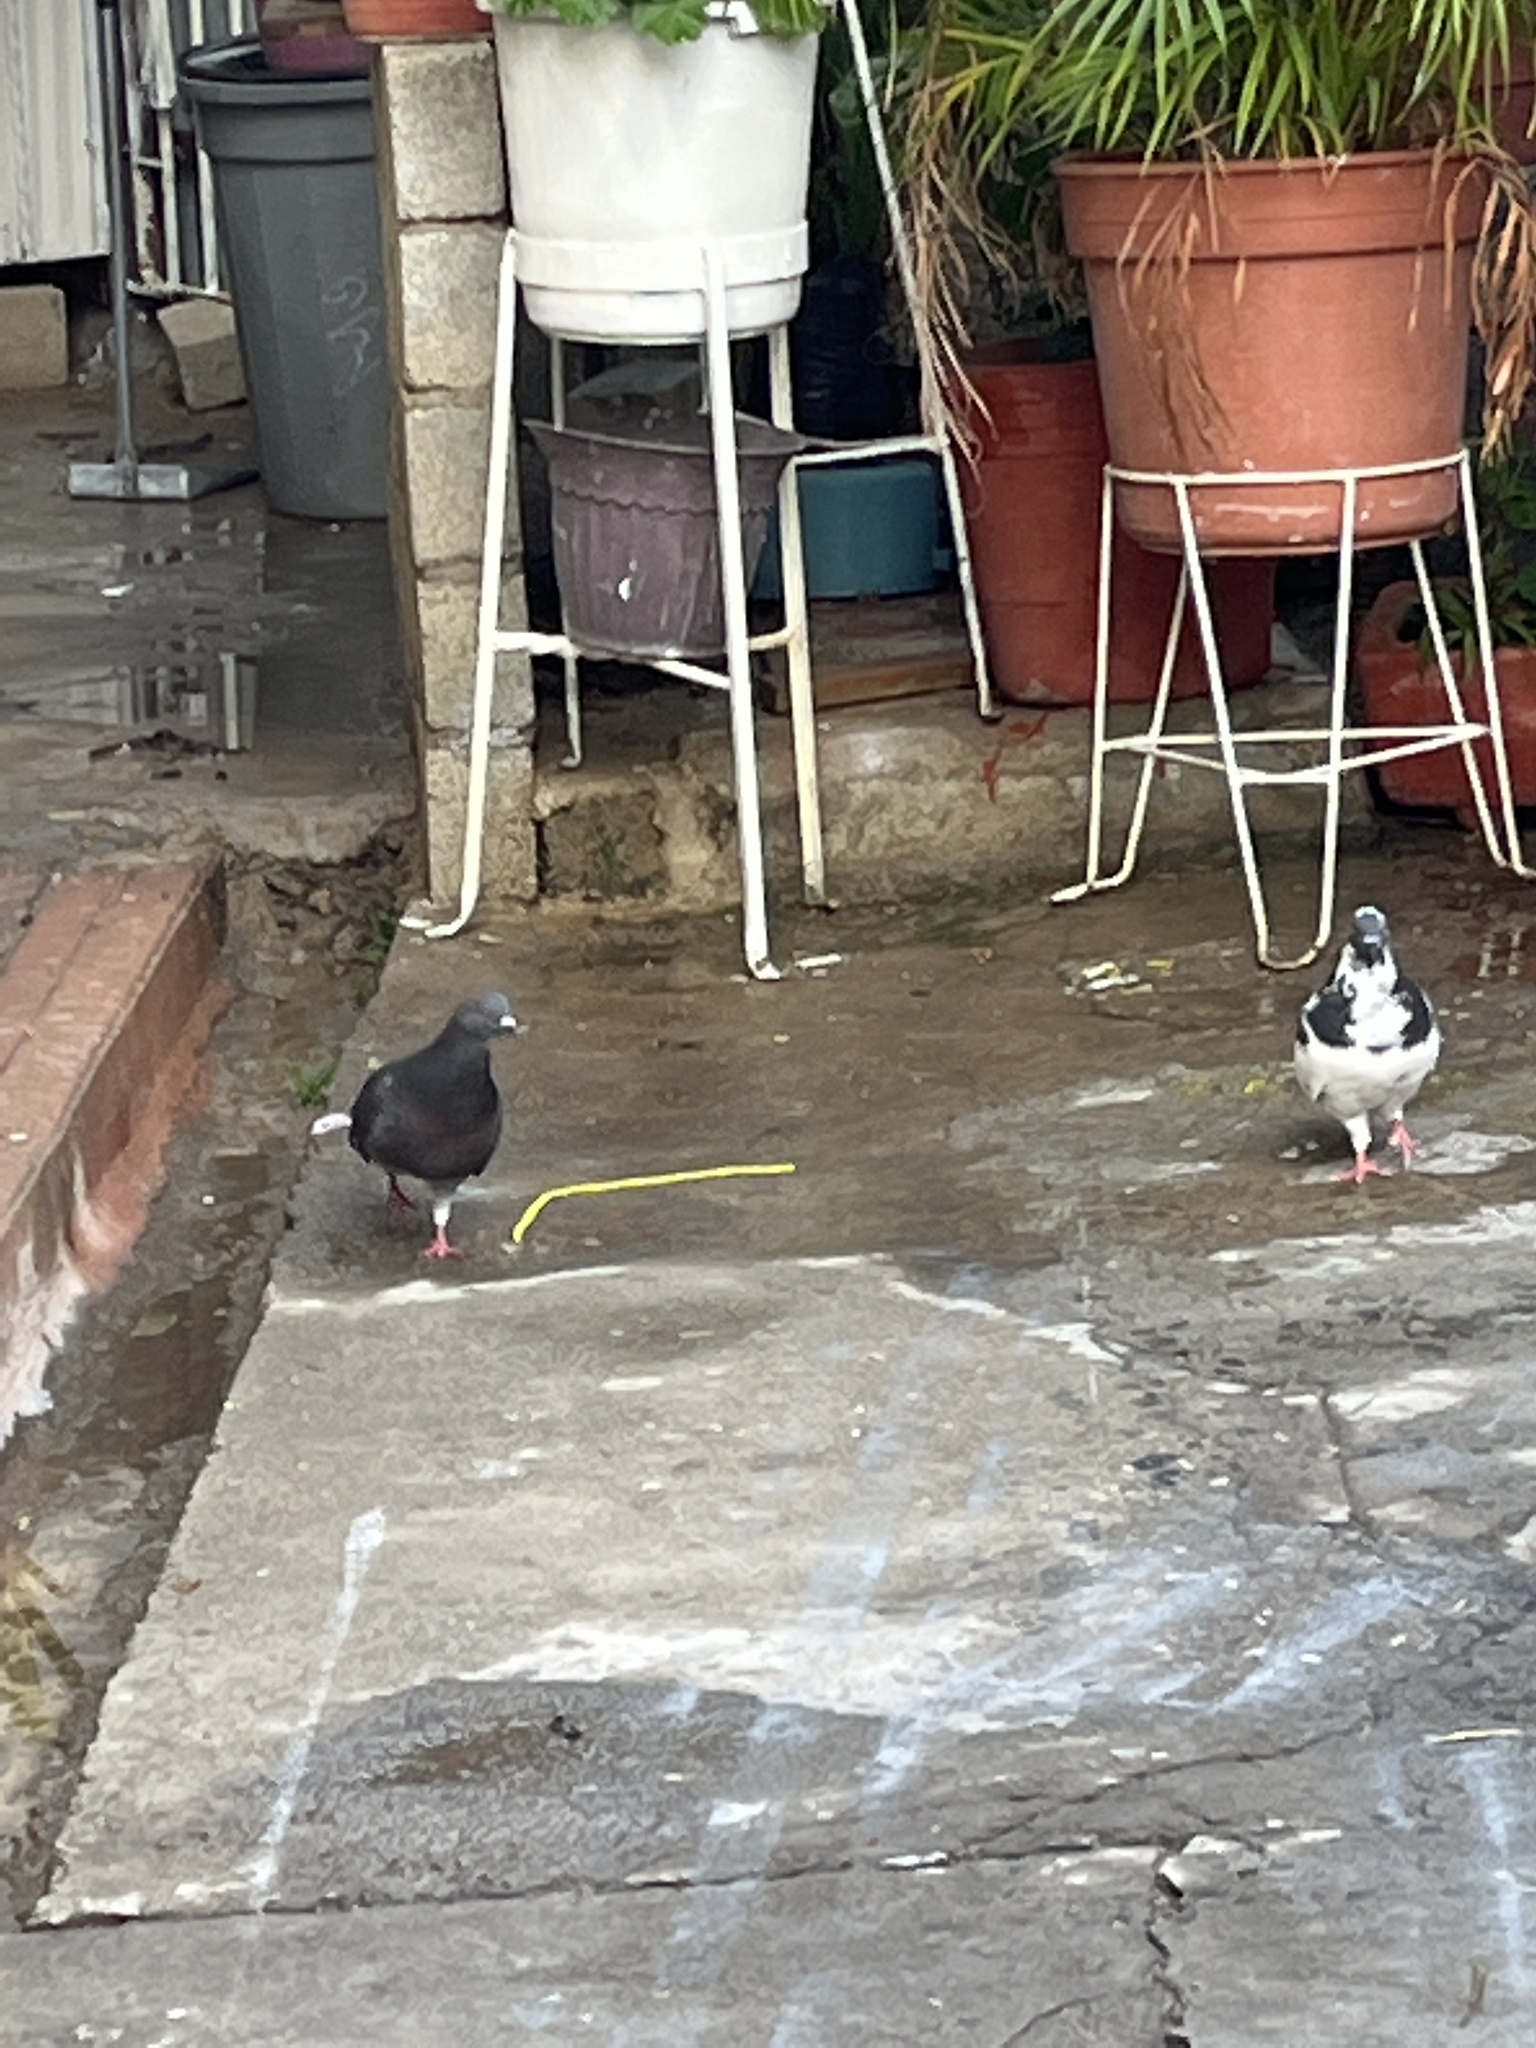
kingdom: Animalia
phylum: Chordata
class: Aves
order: Columbiformes
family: Columbidae
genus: Columba
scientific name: Columba livia
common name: Rock pigeon
